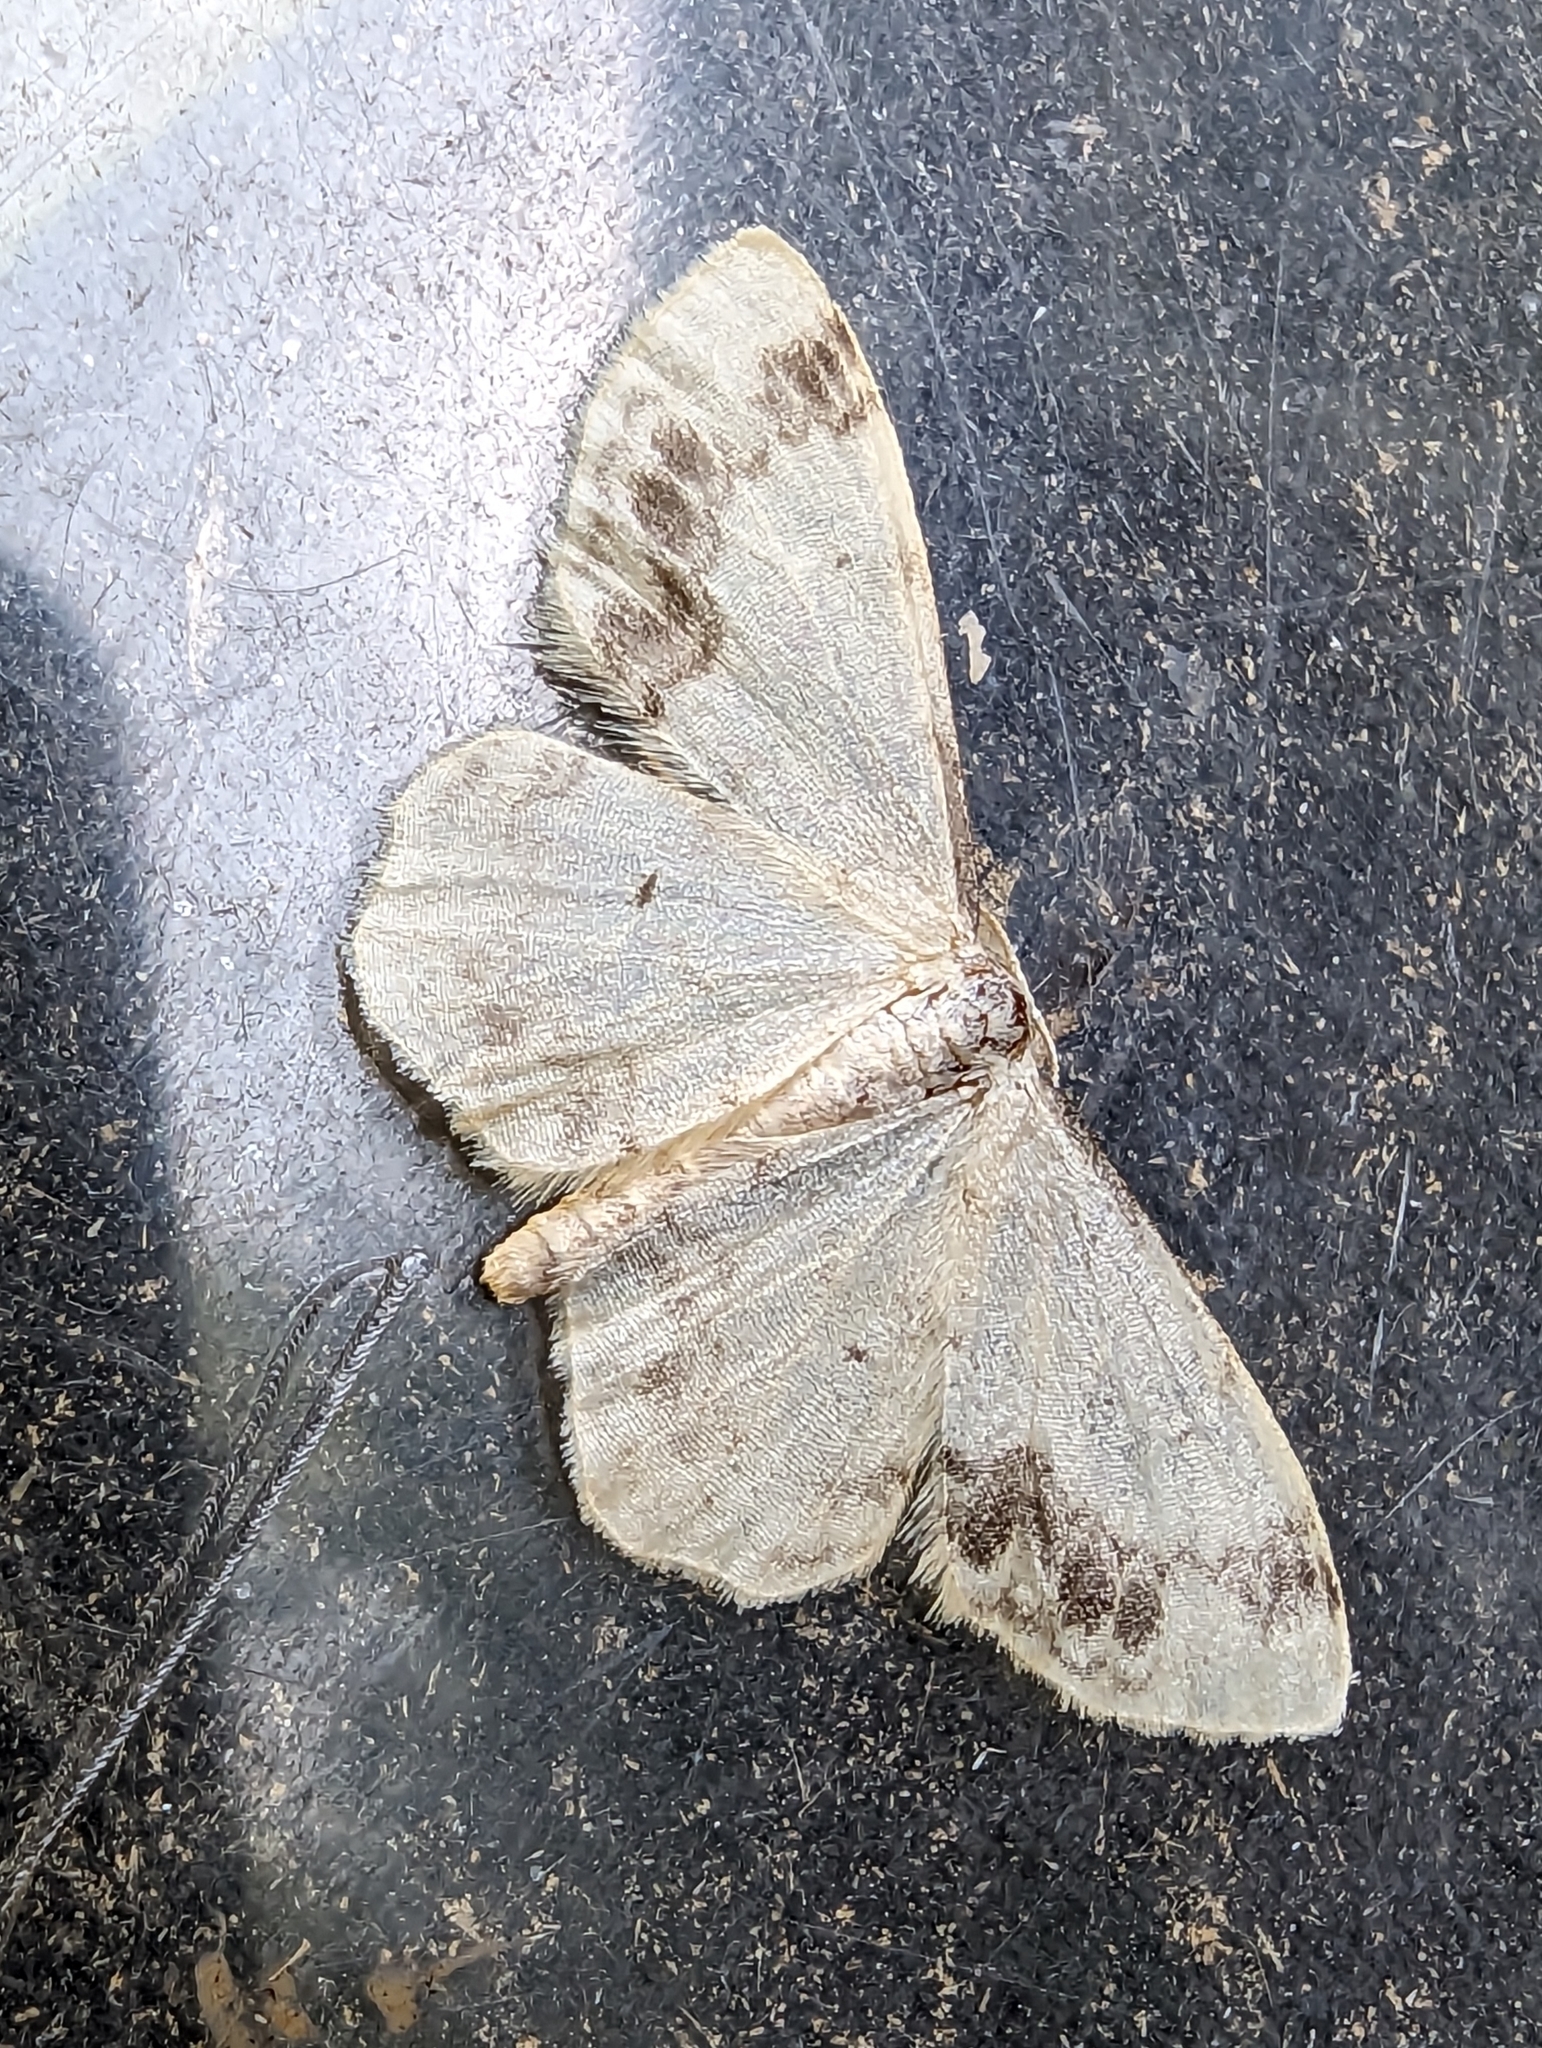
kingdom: Animalia
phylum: Arthropoda
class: Insecta
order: Lepidoptera
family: Geometridae
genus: Idaea
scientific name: Idaea trigeminata
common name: Treble brown spot
